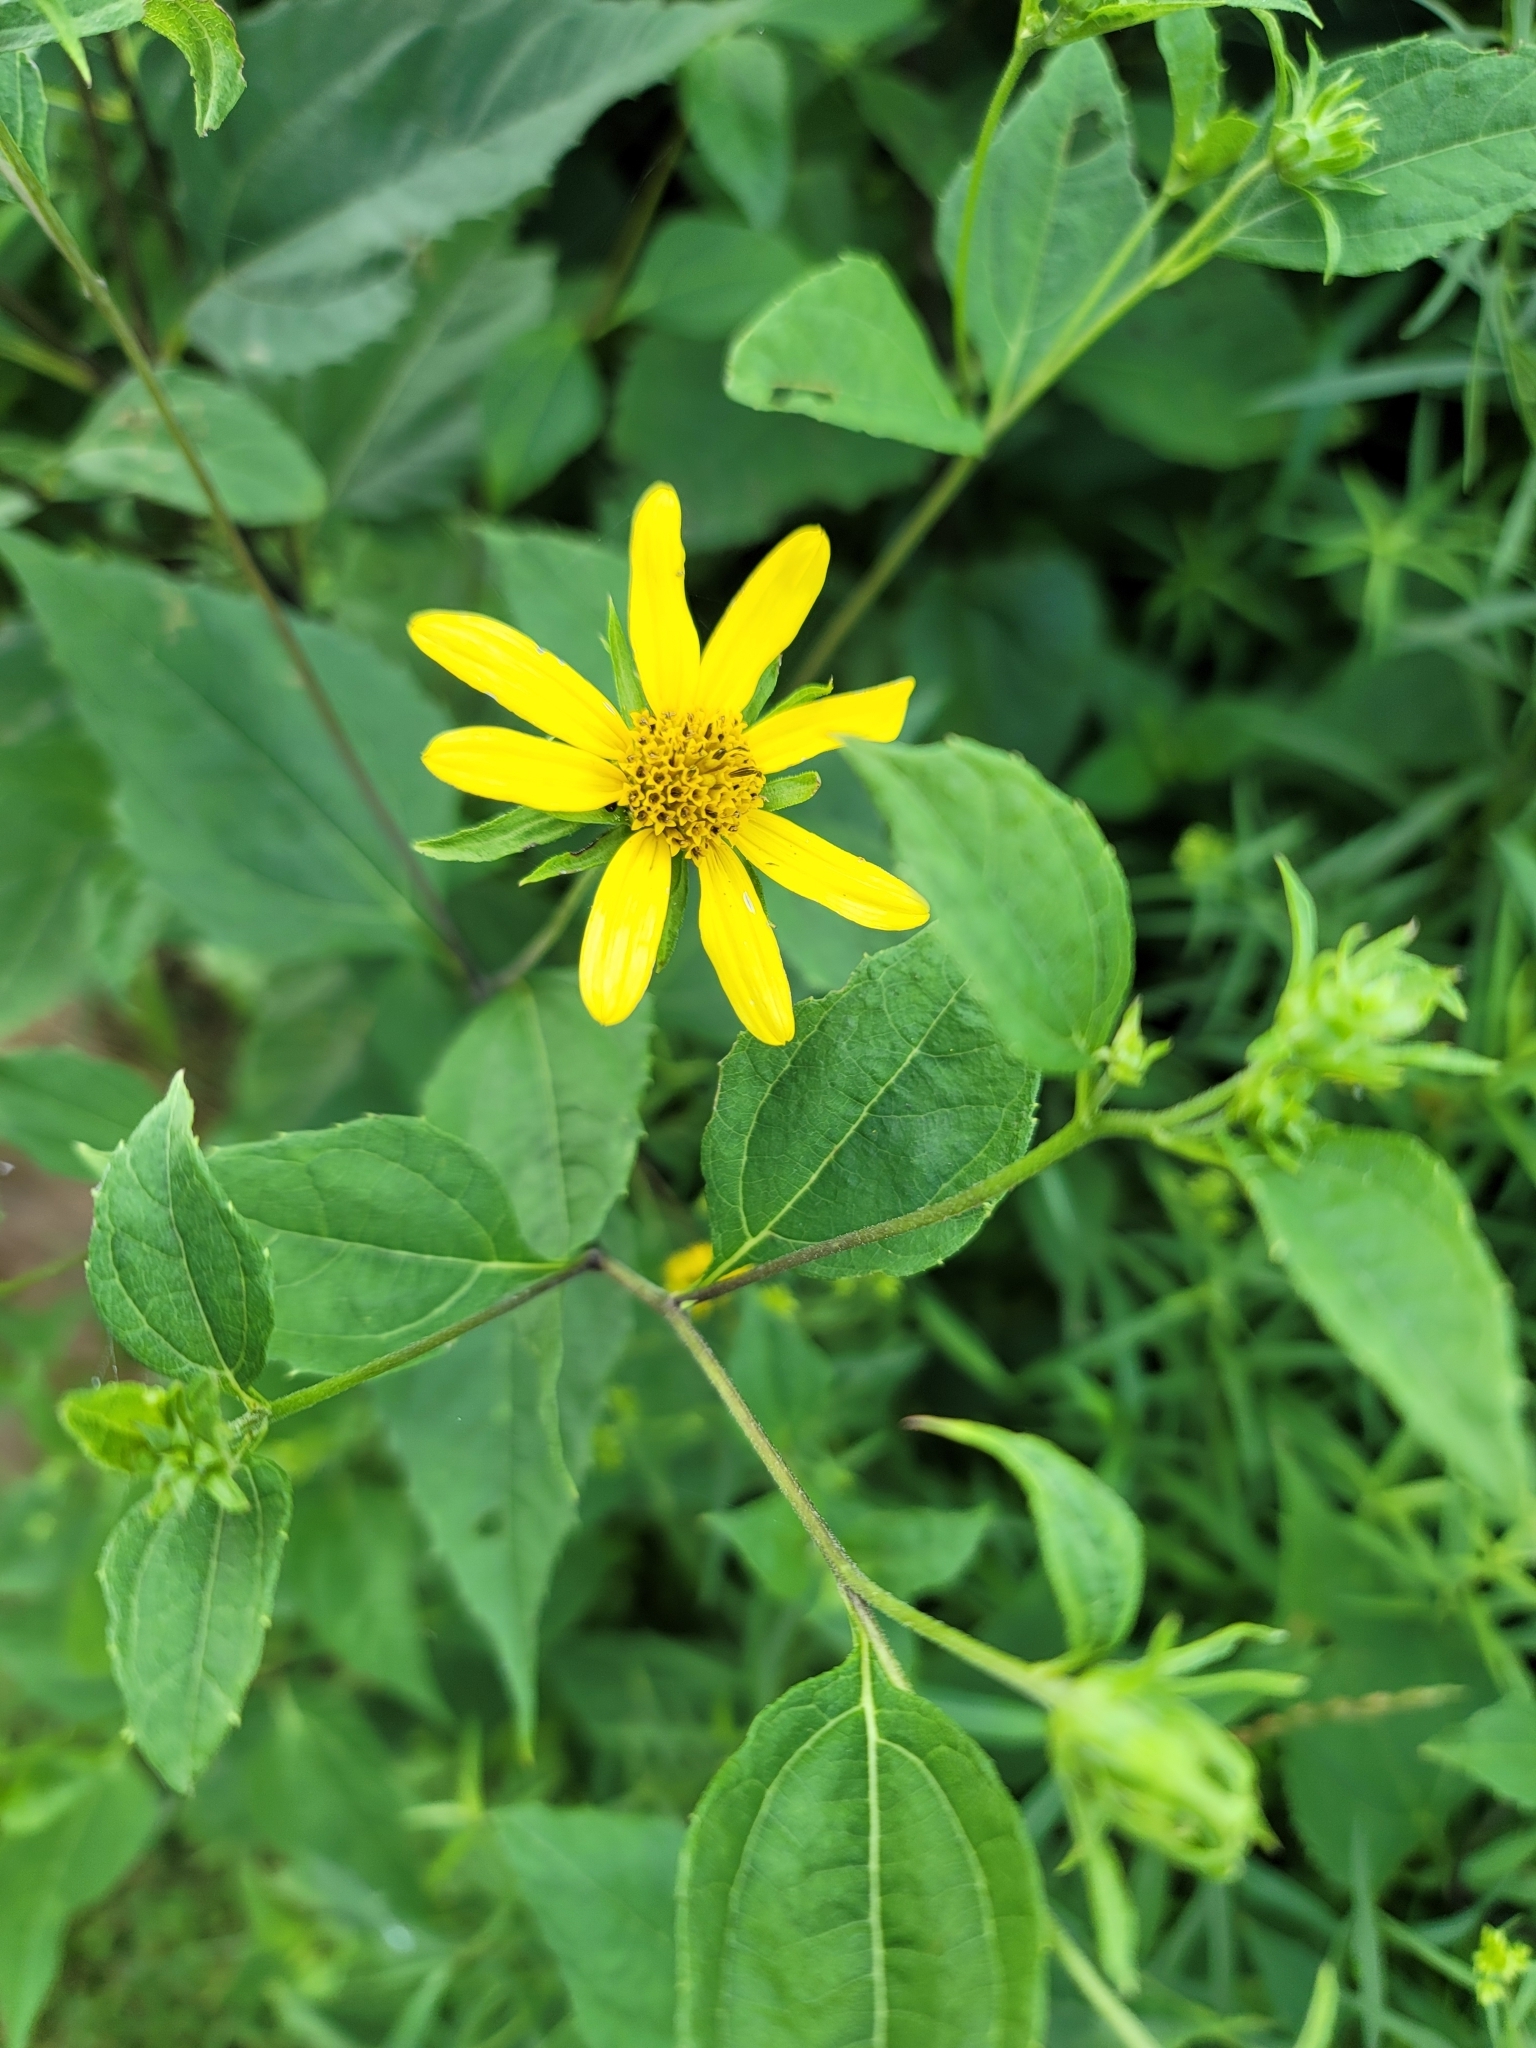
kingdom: Plantae
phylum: Tracheophyta
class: Magnoliopsida
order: Asterales
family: Asteraceae
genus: Helianthus
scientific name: Helianthus strumosus
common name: Pale-leaved sunflower
